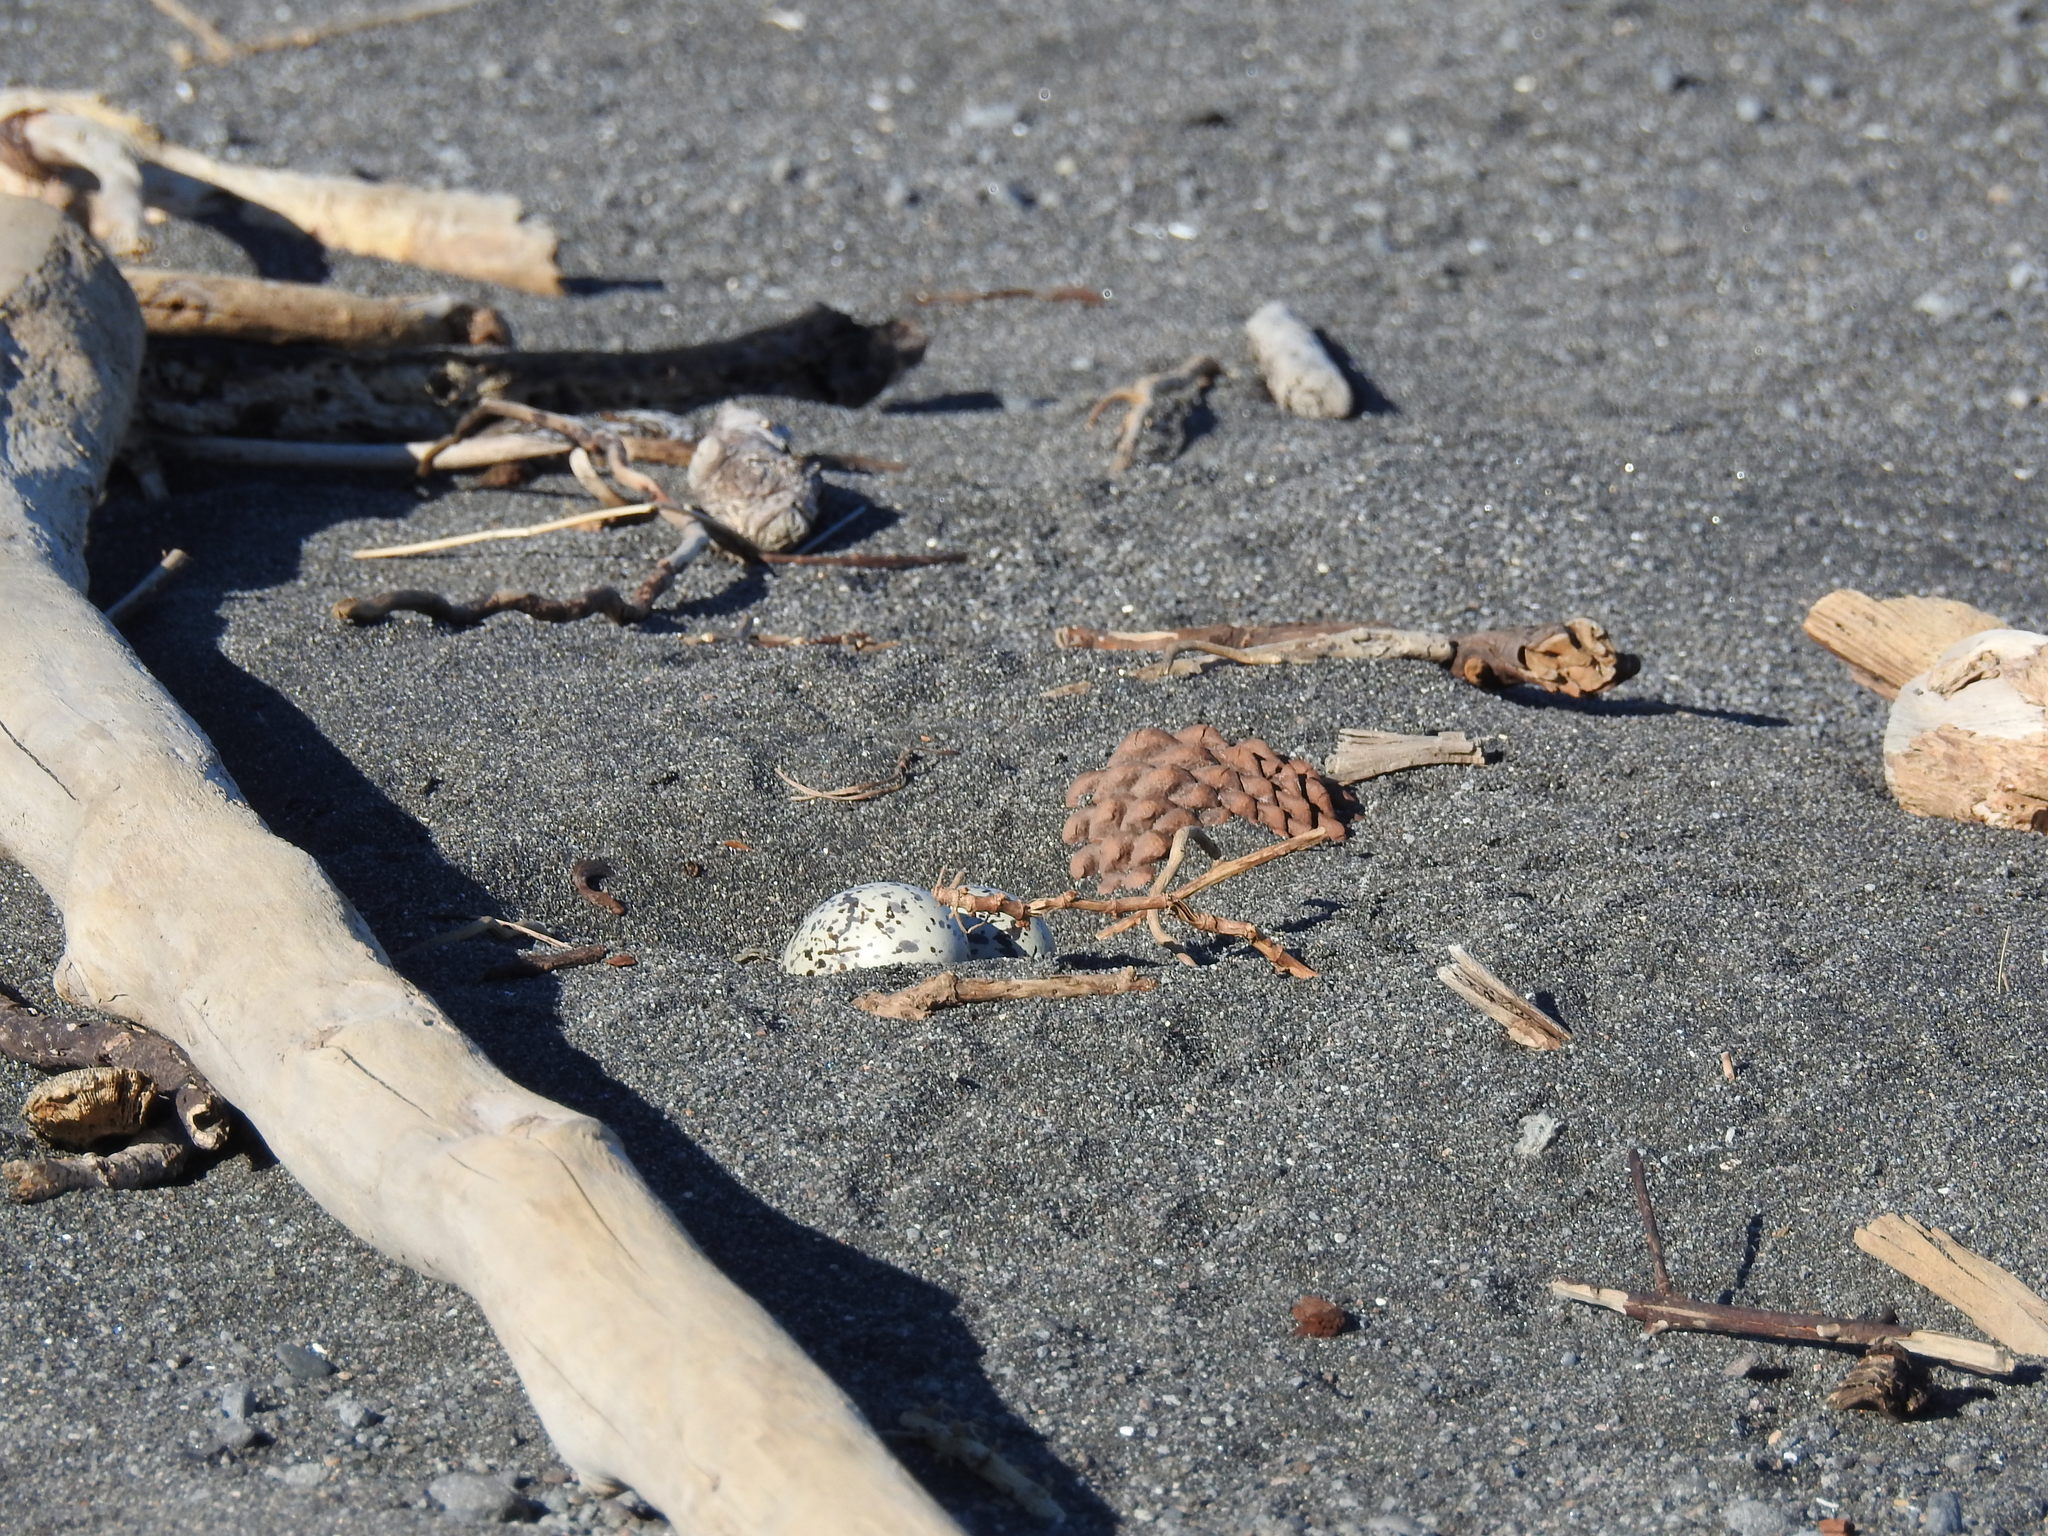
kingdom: Animalia
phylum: Chordata
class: Aves
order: Charadriiformes
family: Haematopodidae
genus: Haematopus
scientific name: Haematopus unicolor
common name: Variable oystercatcher
